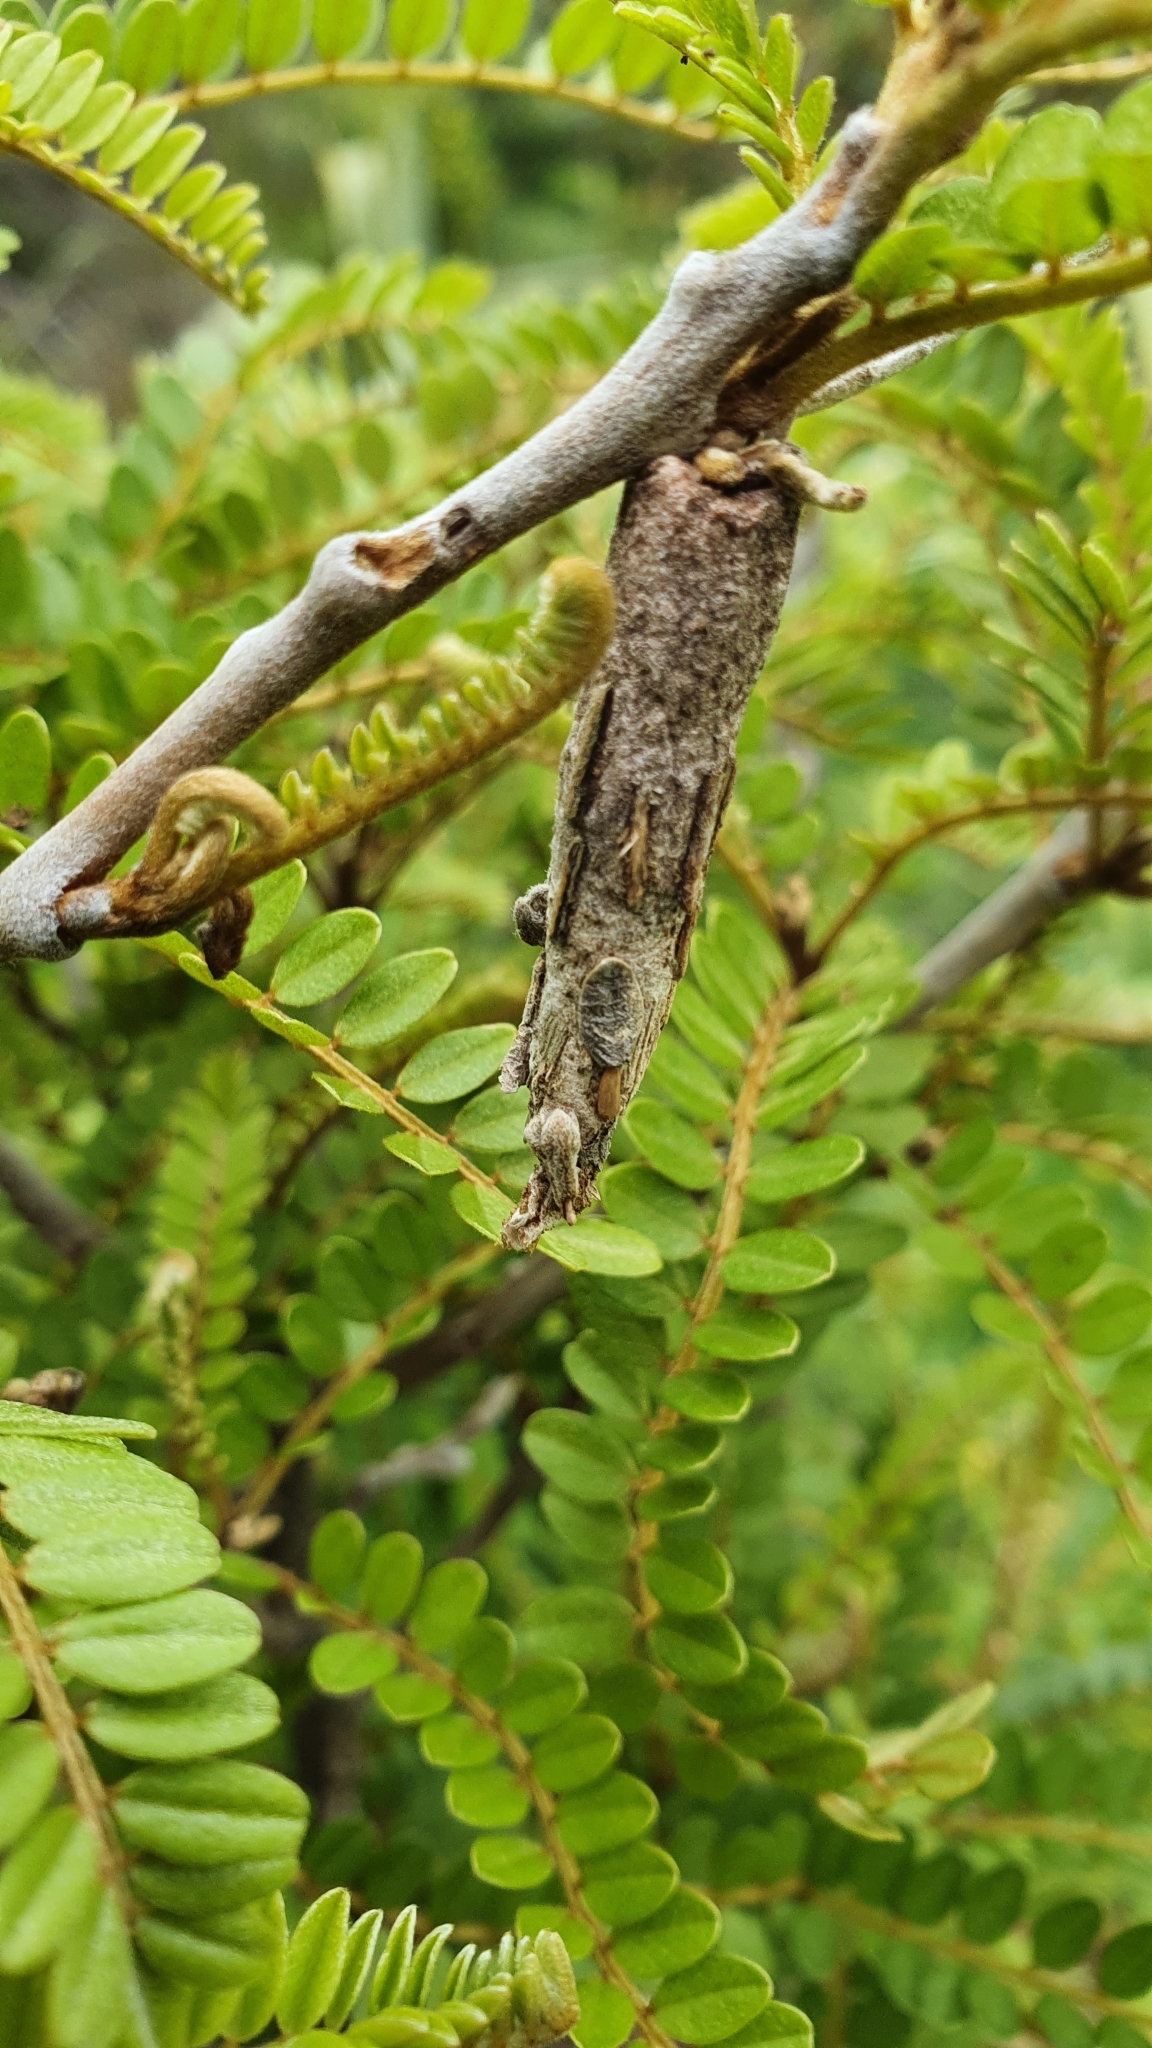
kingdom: Animalia
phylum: Arthropoda
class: Insecta
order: Lepidoptera
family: Psychidae
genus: Liothula
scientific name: Liothula omnivora
